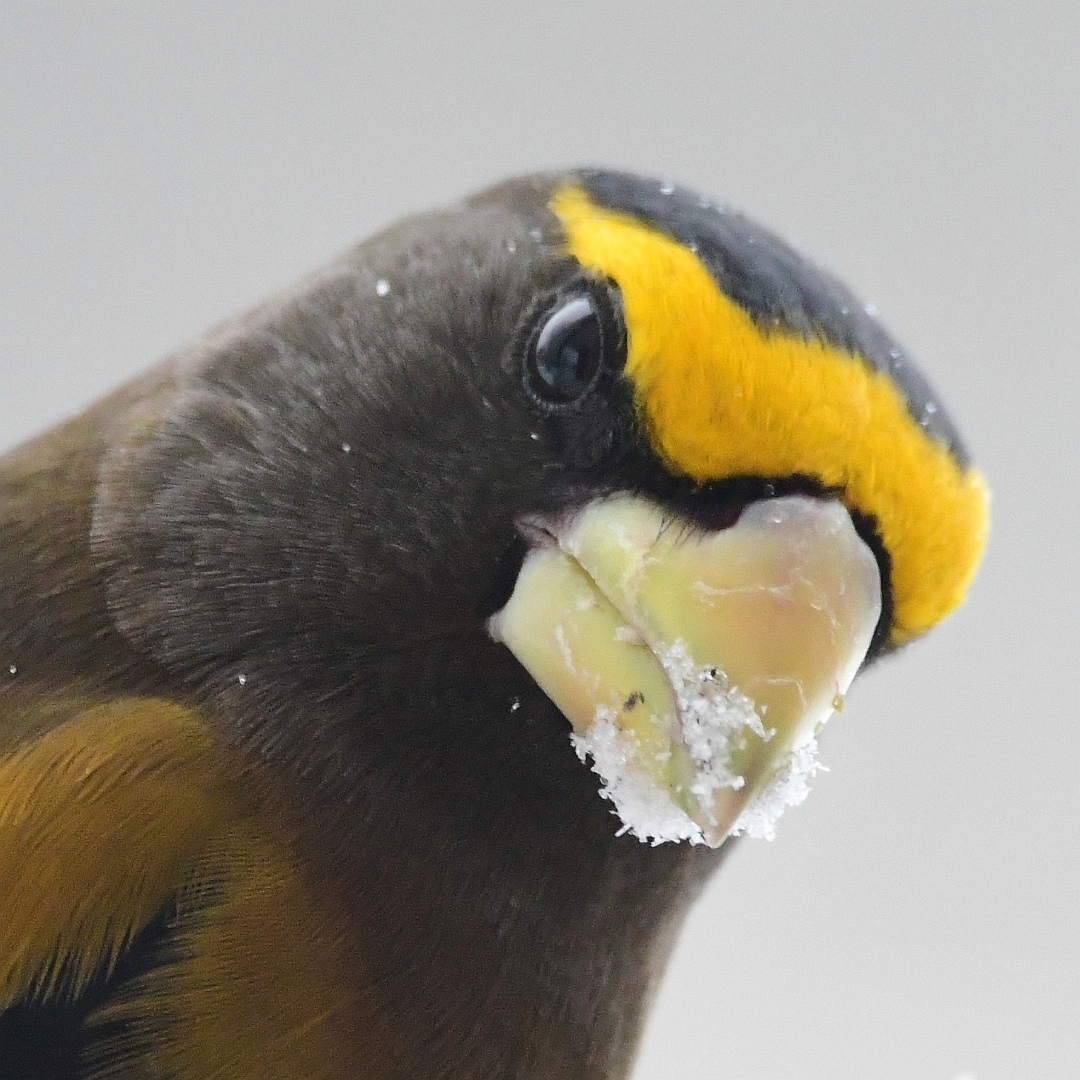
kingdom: Animalia
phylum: Chordata
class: Aves
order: Passeriformes
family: Fringillidae
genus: Hesperiphona
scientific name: Hesperiphona vespertina
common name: Evening grosbeak
